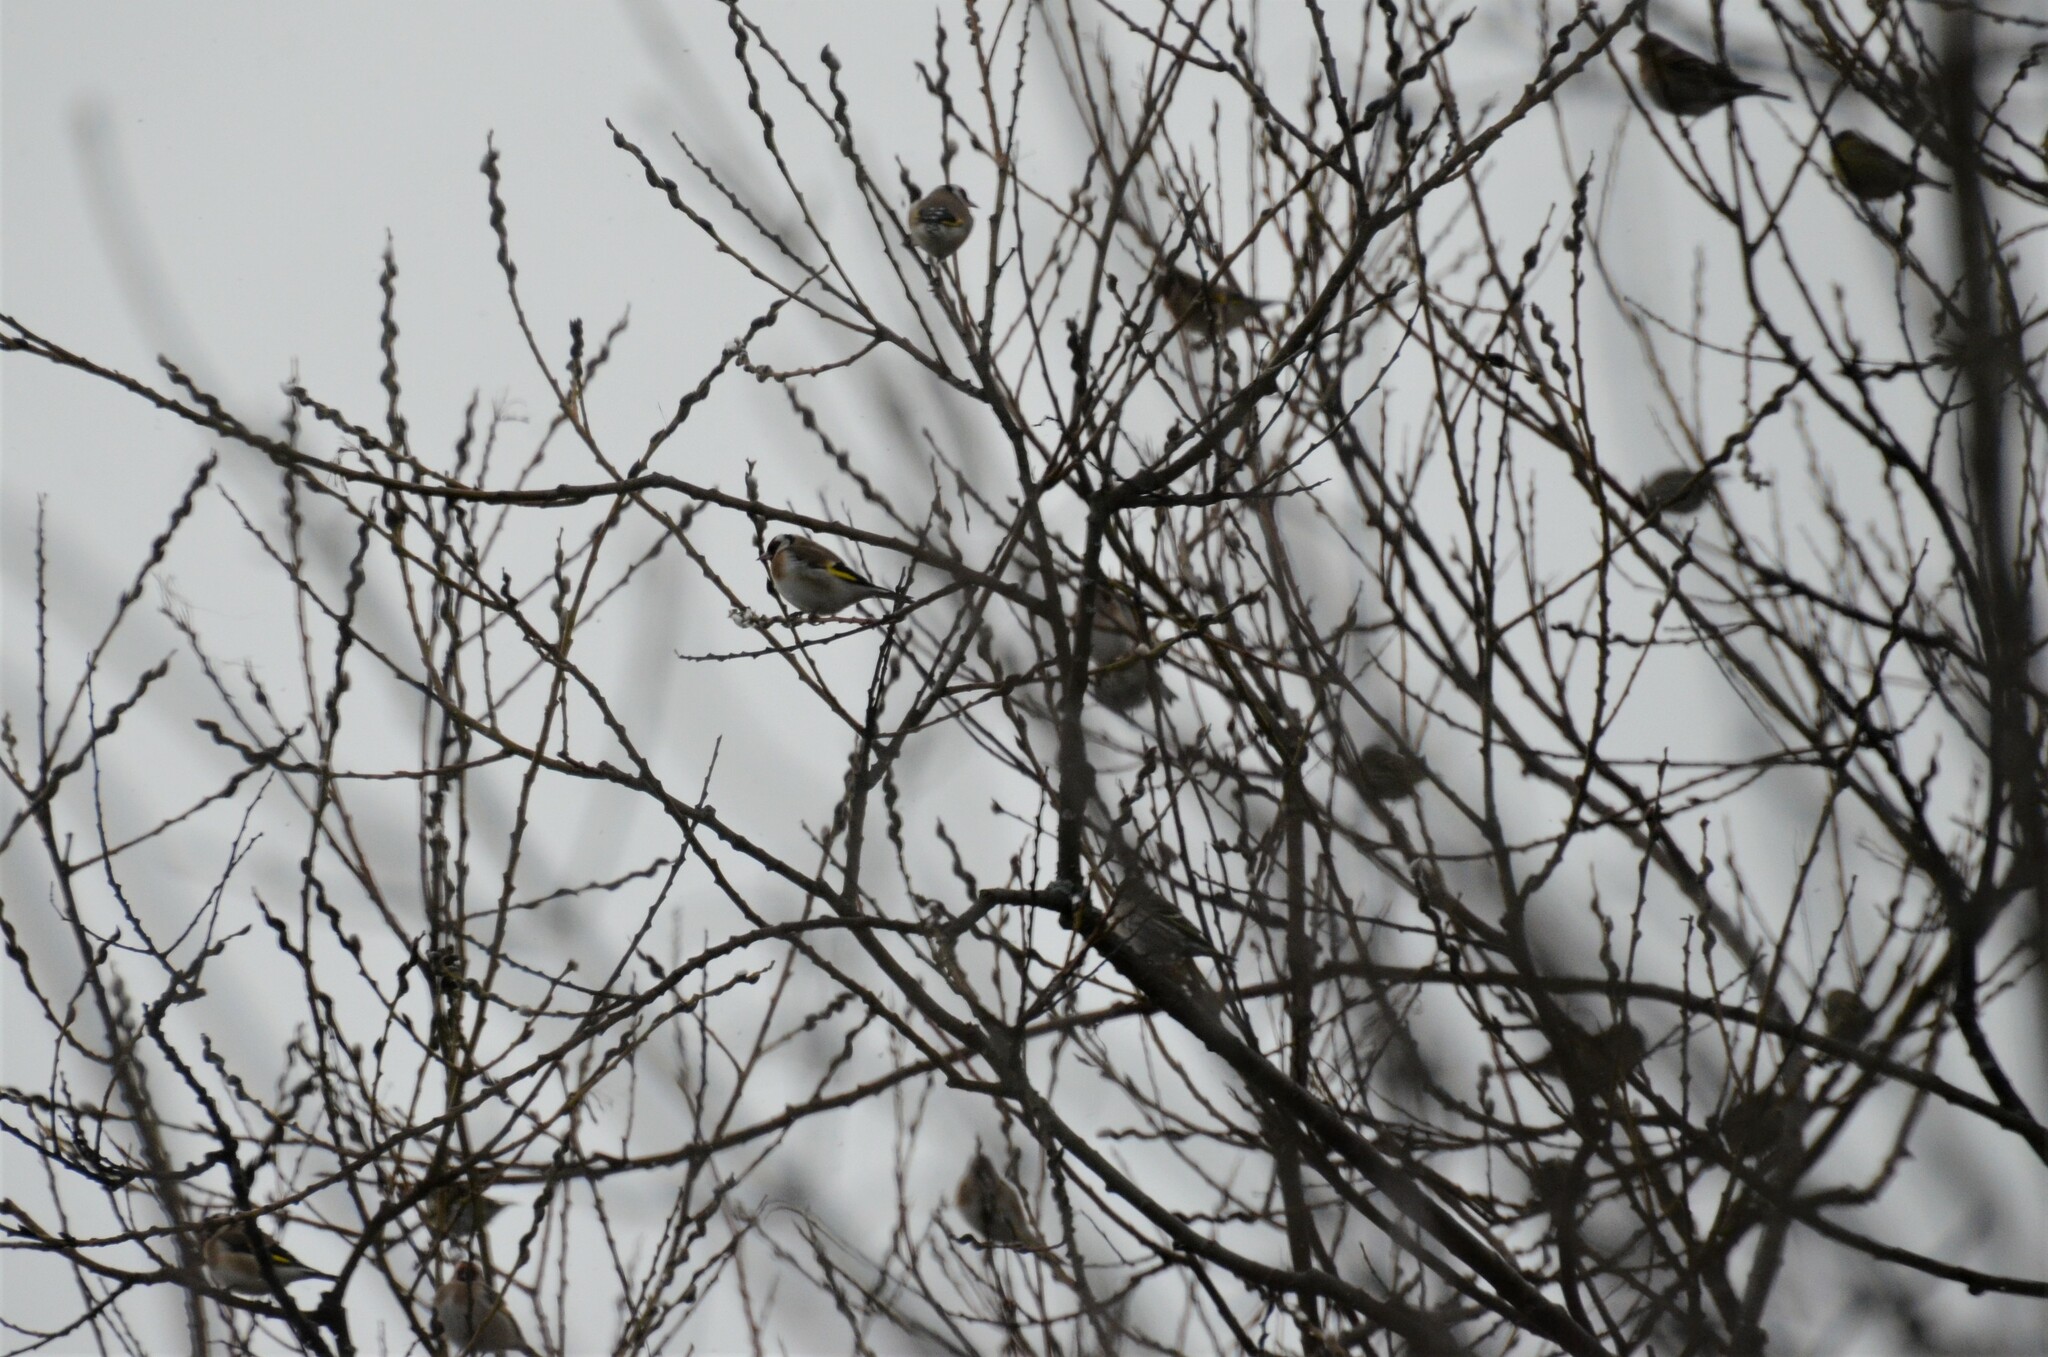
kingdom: Animalia
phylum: Chordata
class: Aves
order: Passeriformes
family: Fringillidae
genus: Carduelis
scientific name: Carduelis carduelis
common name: European goldfinch
